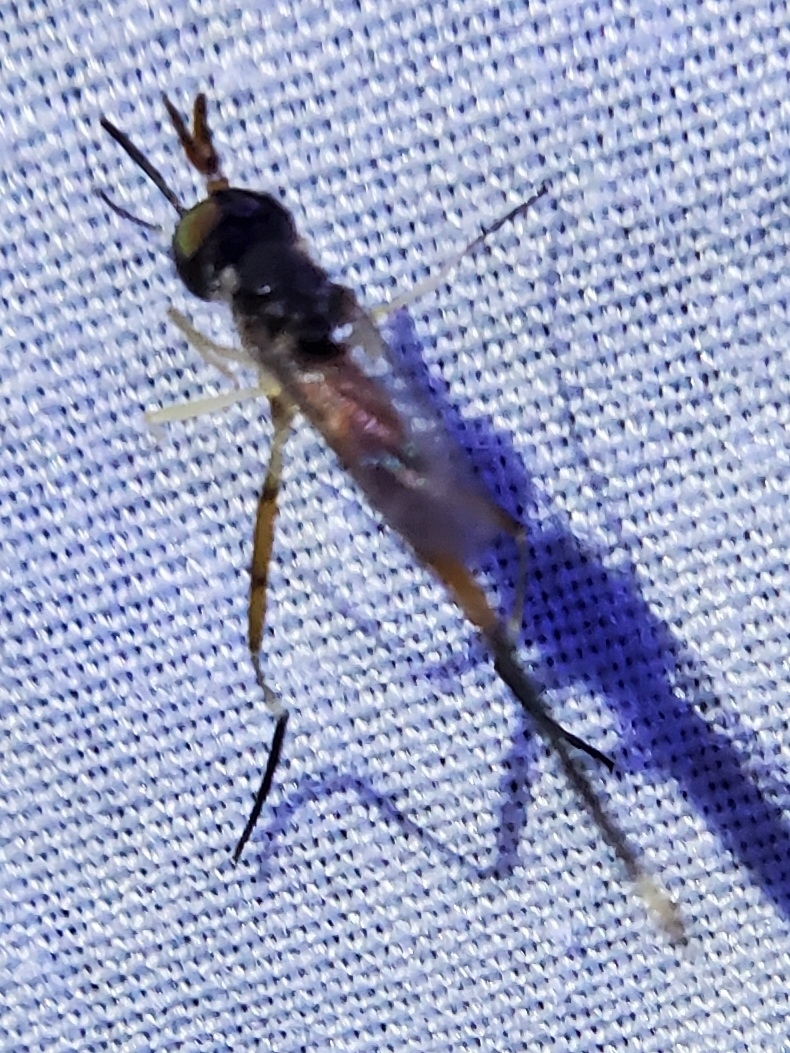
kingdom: Animalia
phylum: Arthropoda
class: Insecta
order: Diptera
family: Conopidae
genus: Stylogaster
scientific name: Stylogaster neglecta
